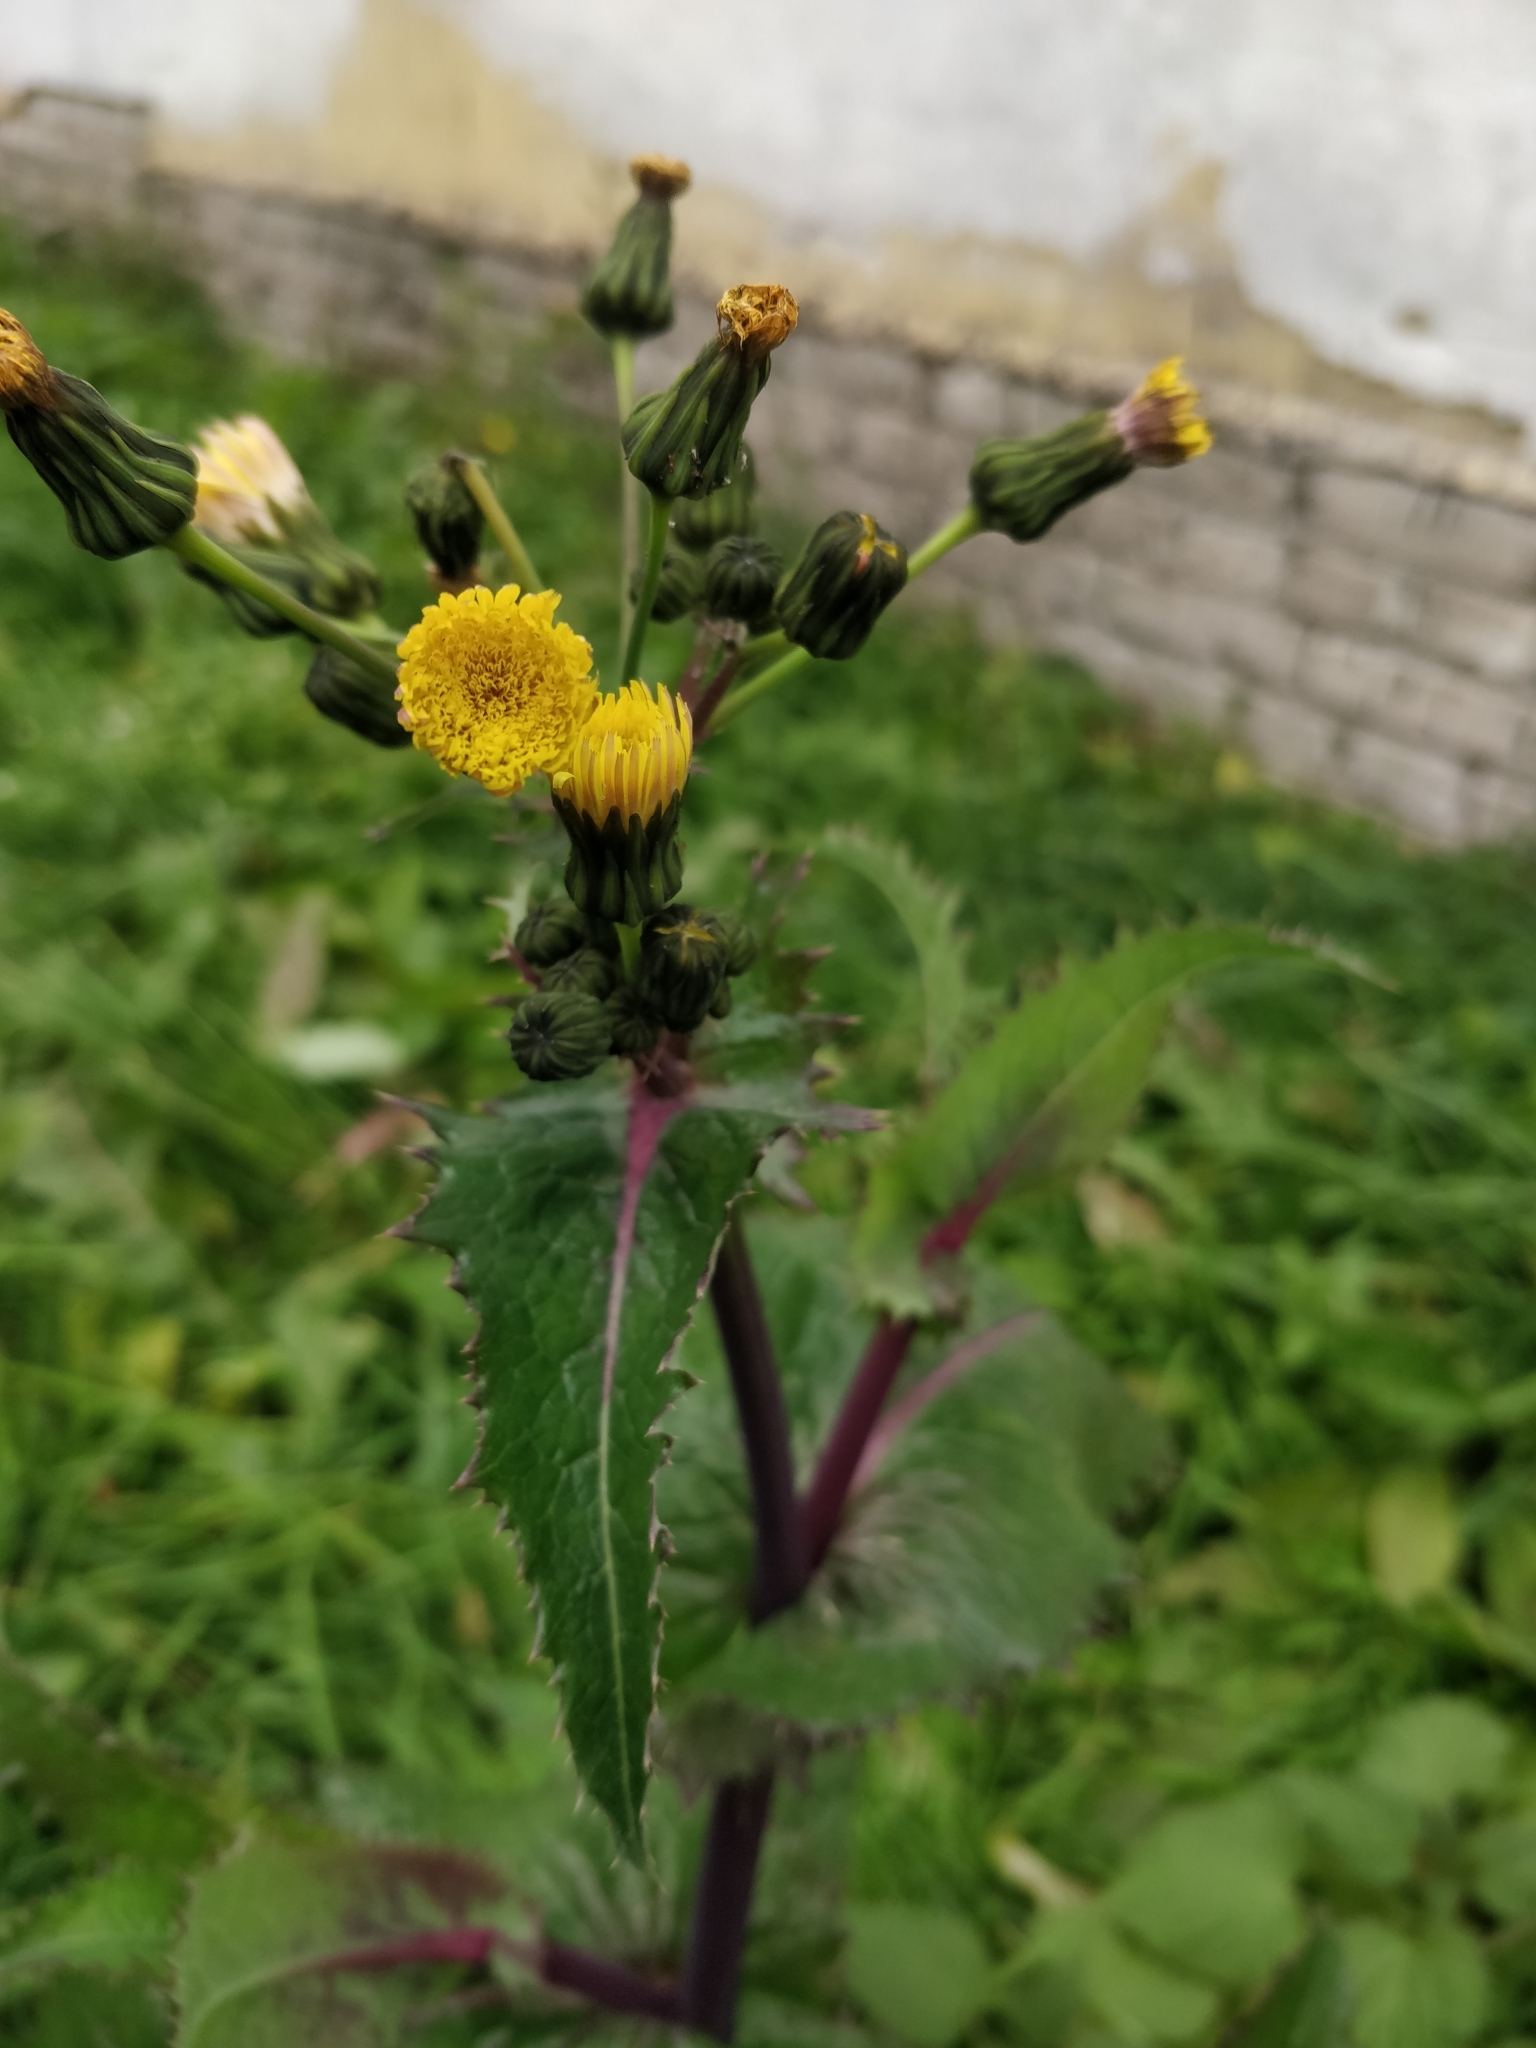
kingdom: Plantae
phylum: Tracheophyta
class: Magnoliopsida
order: Asterales
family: Asteraceae
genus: Sonchus
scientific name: Sonchus asper
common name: Prickly sow-thistle
